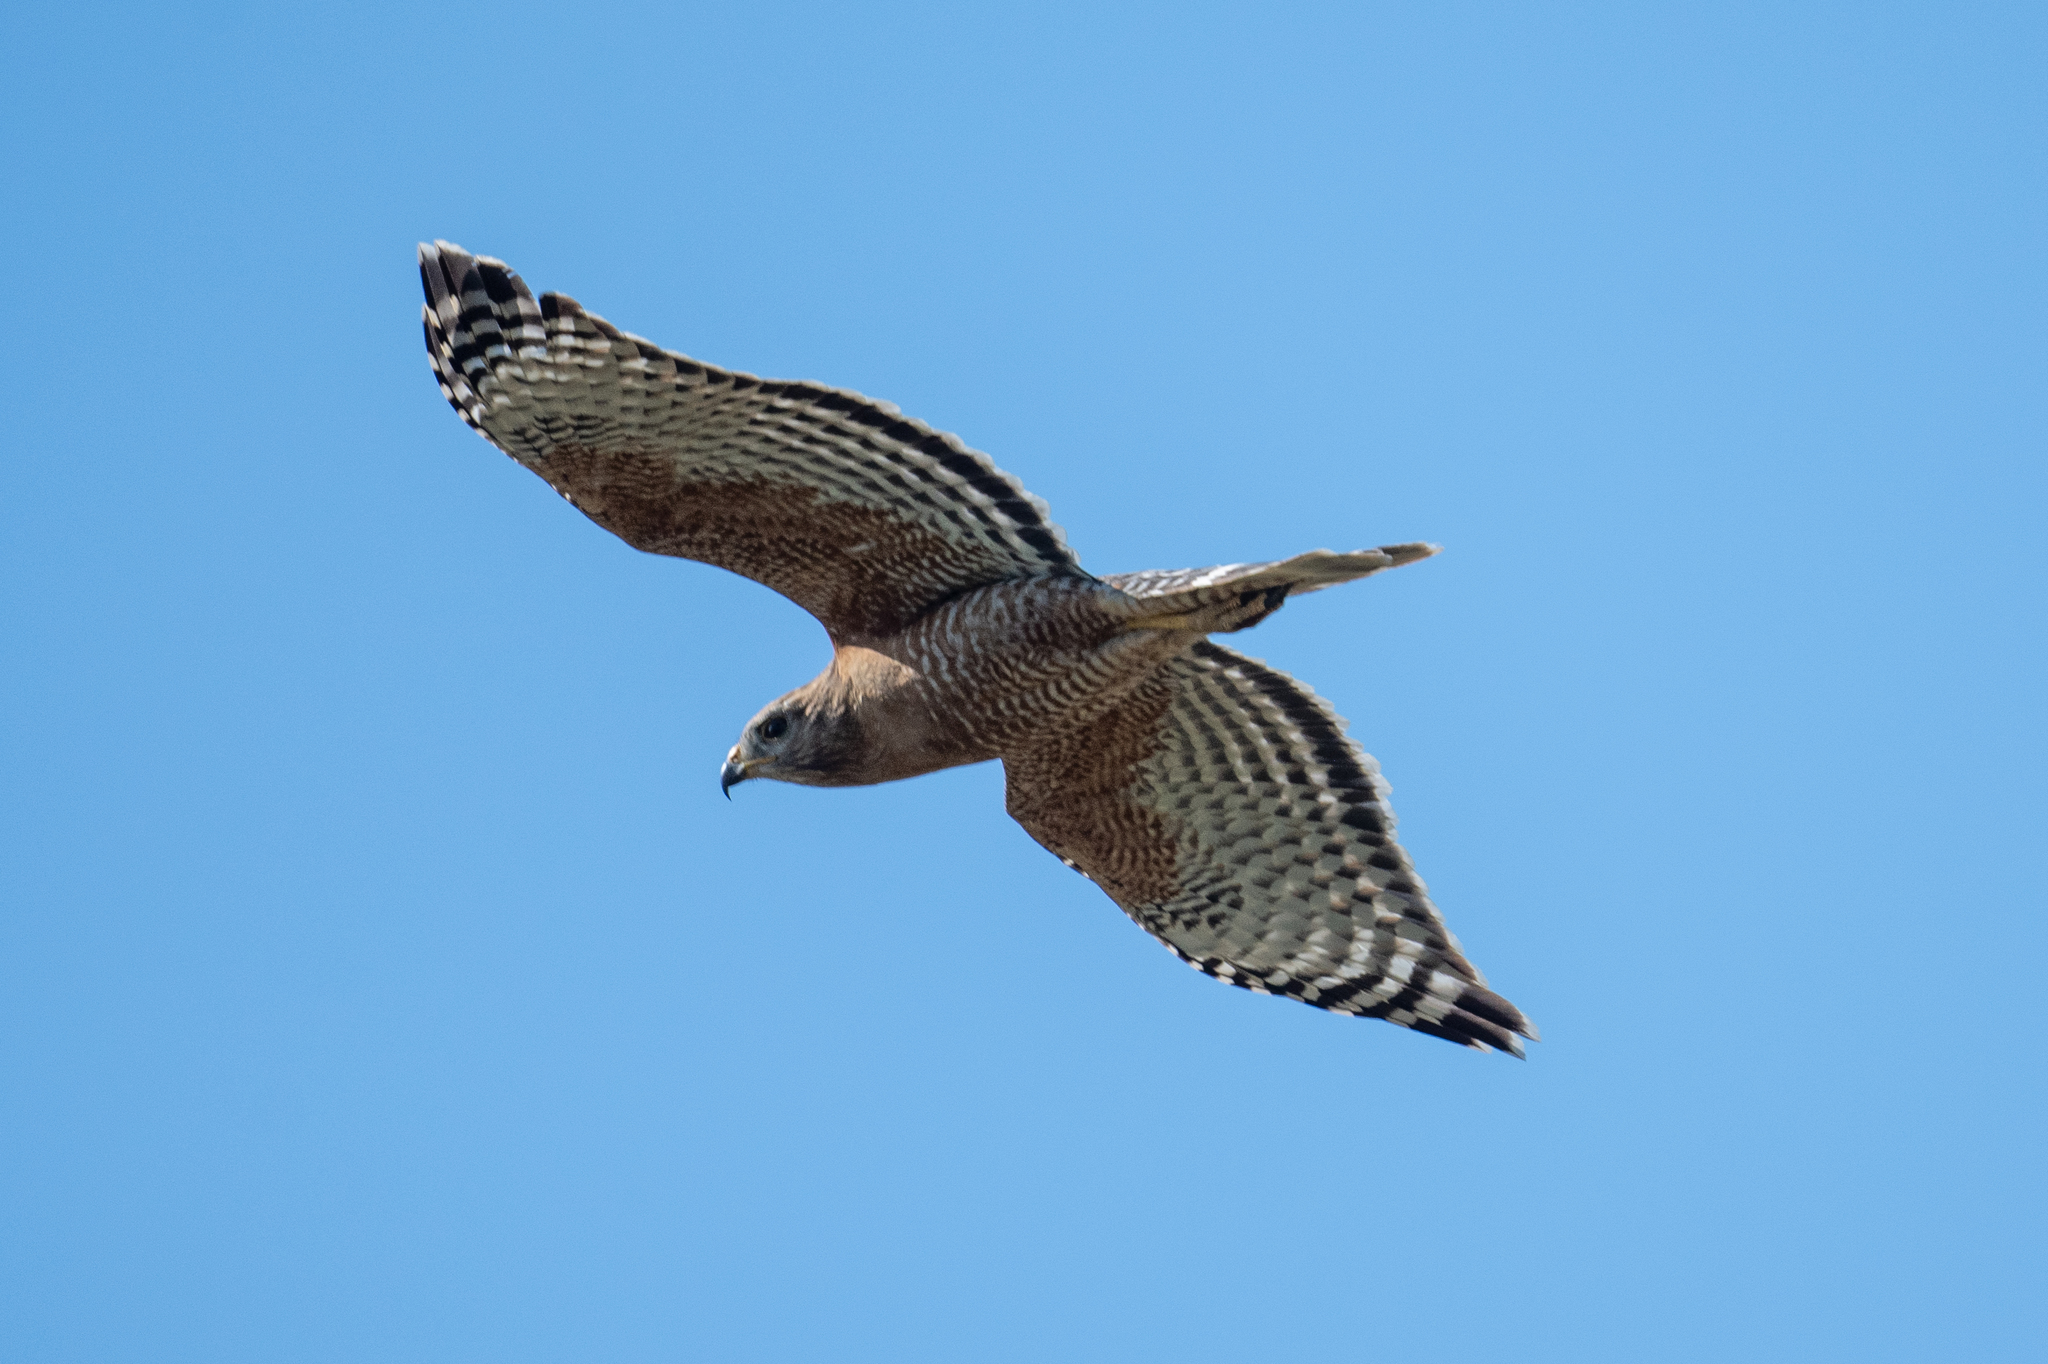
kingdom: Animalia
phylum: Chordata
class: Aves
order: Accipitriformes
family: Accipitridae
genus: Buteo
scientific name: Buteo lineatus
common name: Red-shouldered hawk
